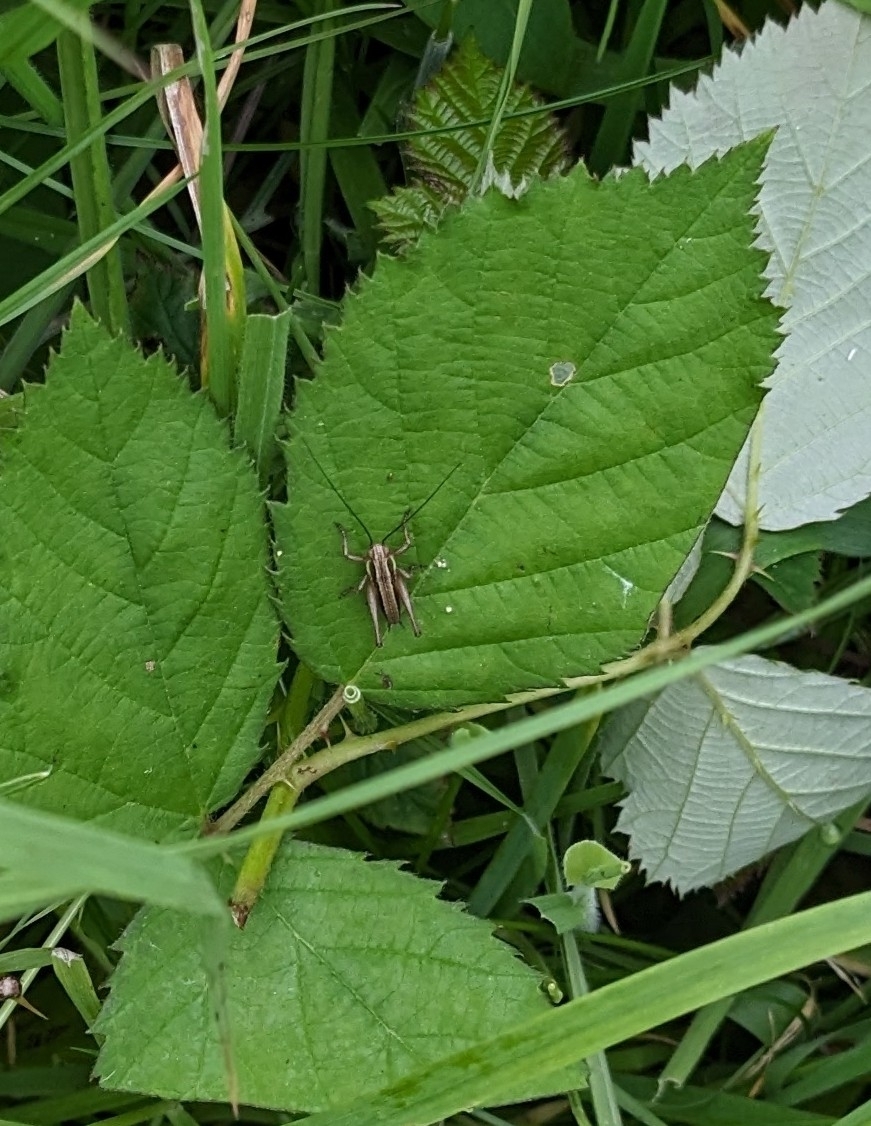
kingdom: Animalia
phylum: Arthropoda
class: Insecta
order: Orthoptera
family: Tettigoniidae
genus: Roeseliana
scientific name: Roeseliana roeselii
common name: Roesel's bush cricket
